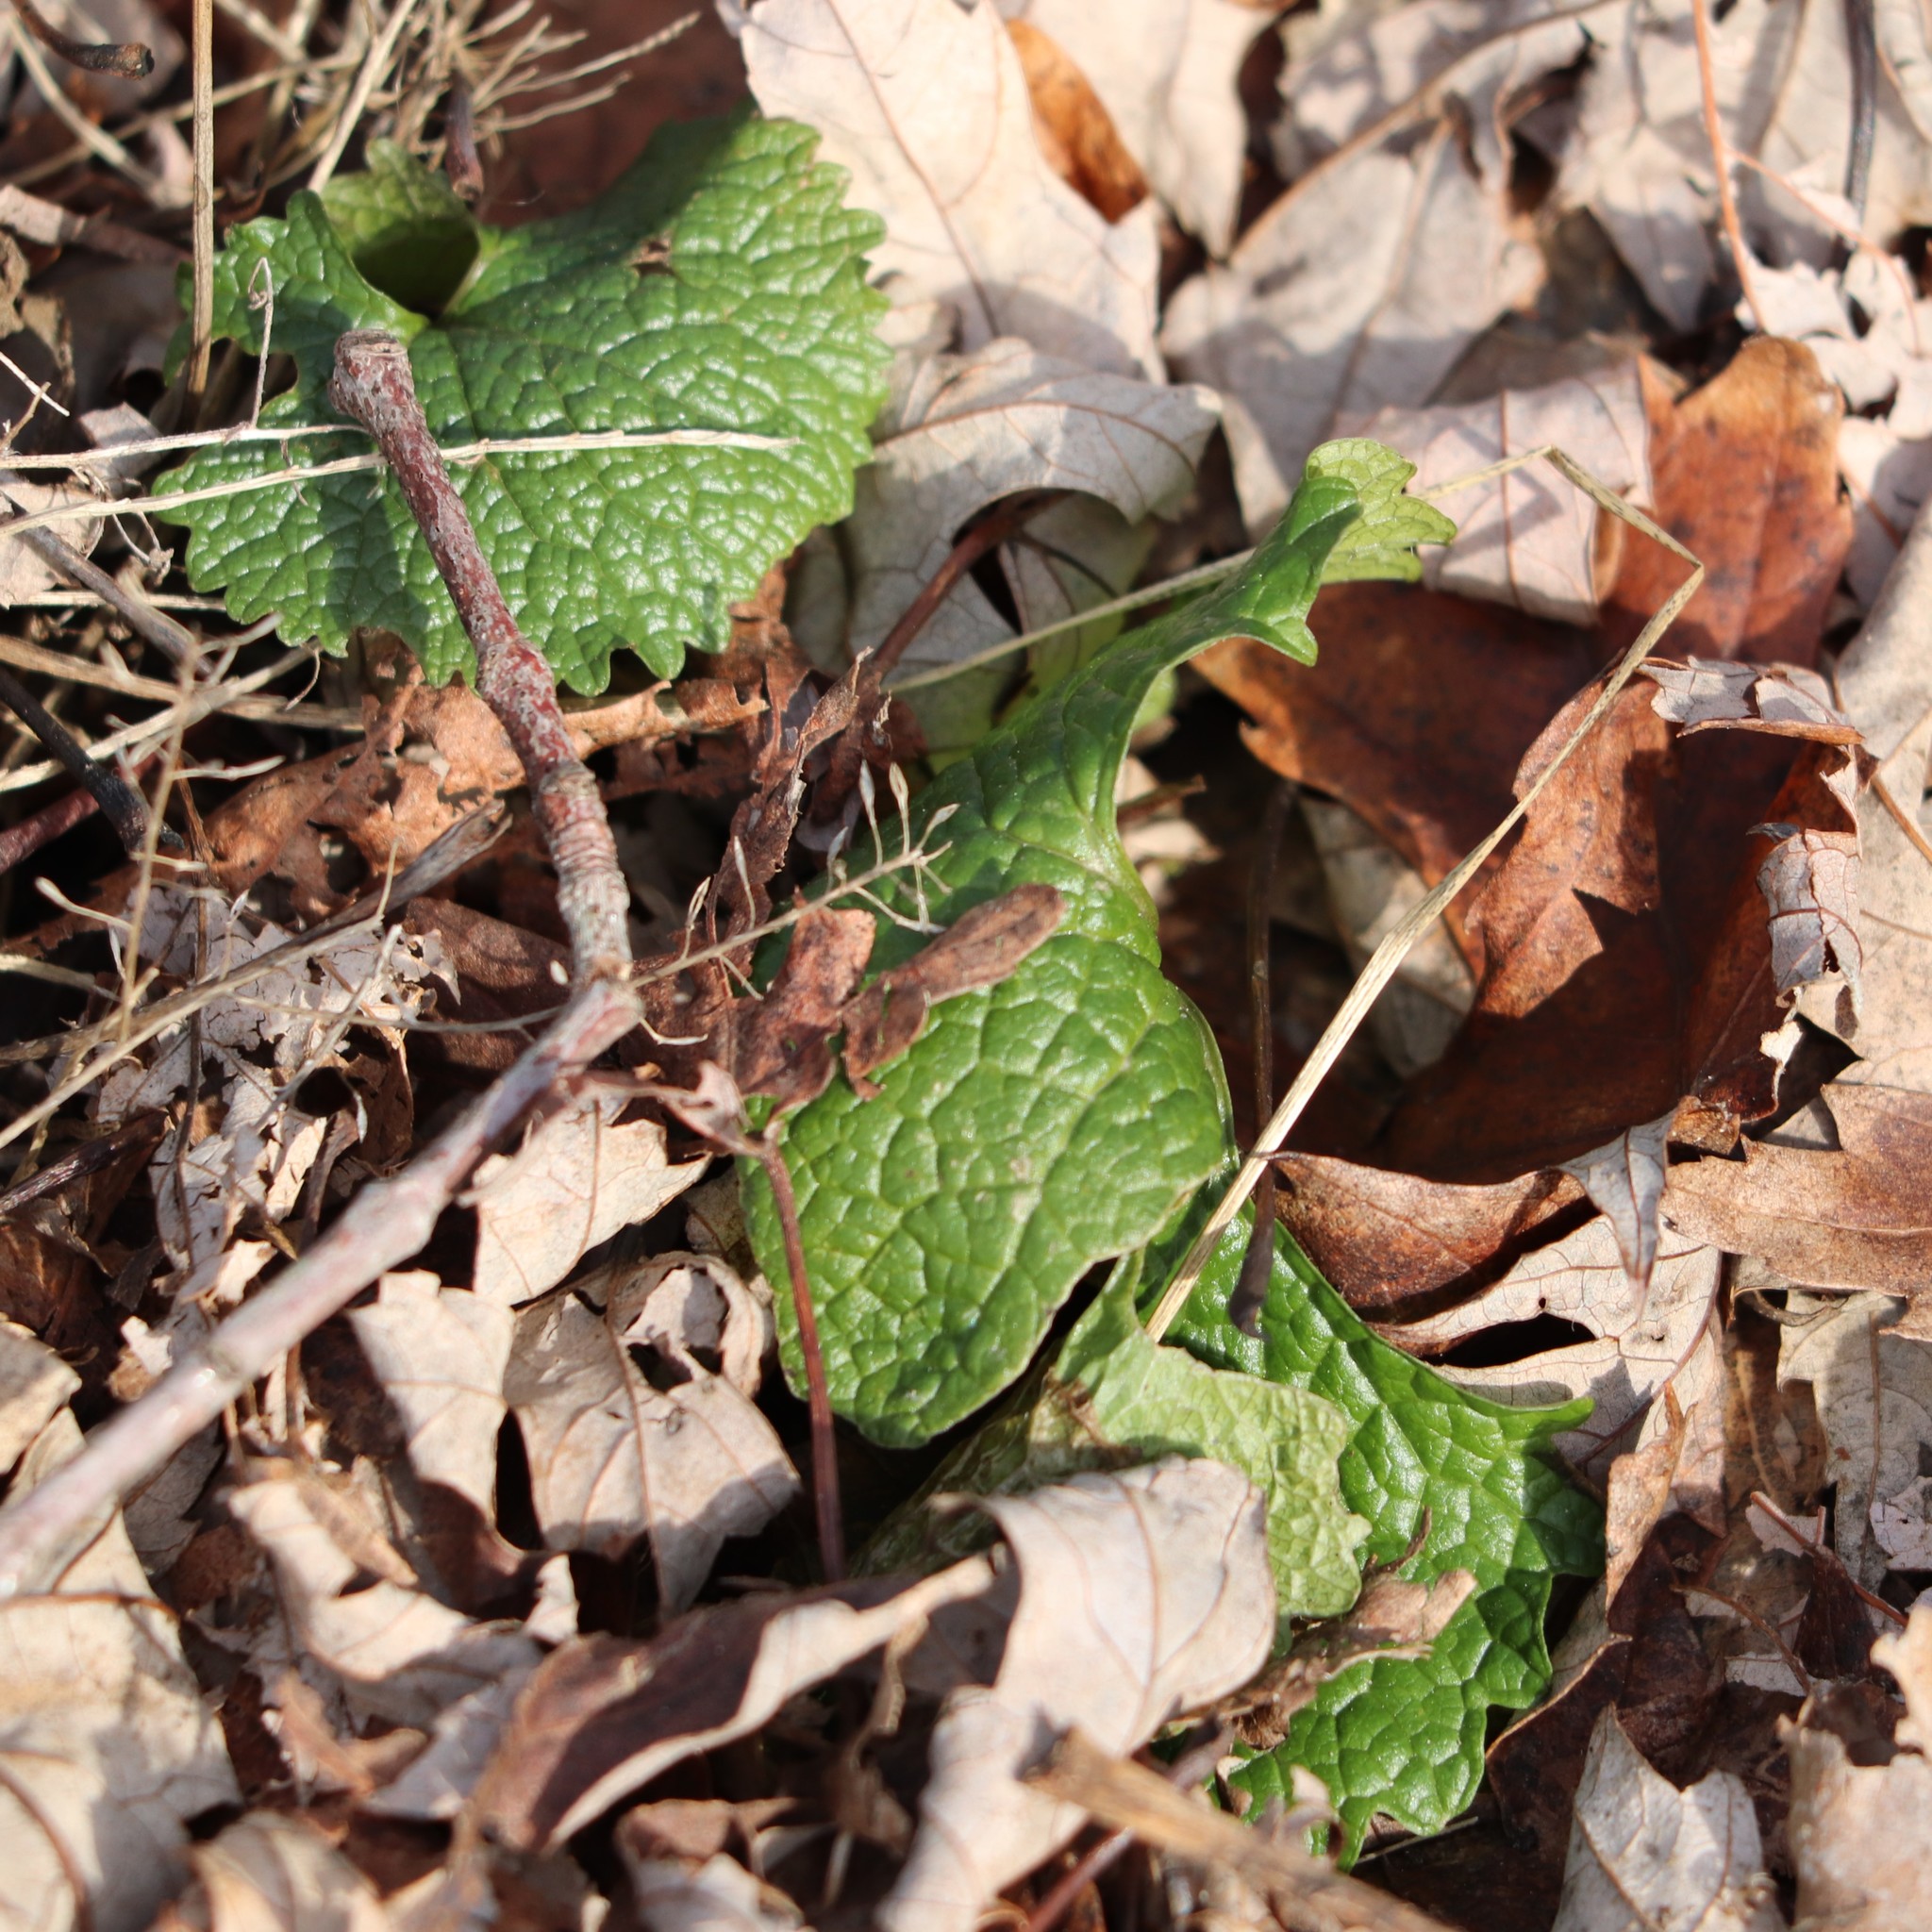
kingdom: Plantae
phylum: Tracheophyta
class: Magnoliopsida
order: Brassicales
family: Brassicaceae
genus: Alliaria
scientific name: Alliaria petiolata
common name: Garlic mustard
